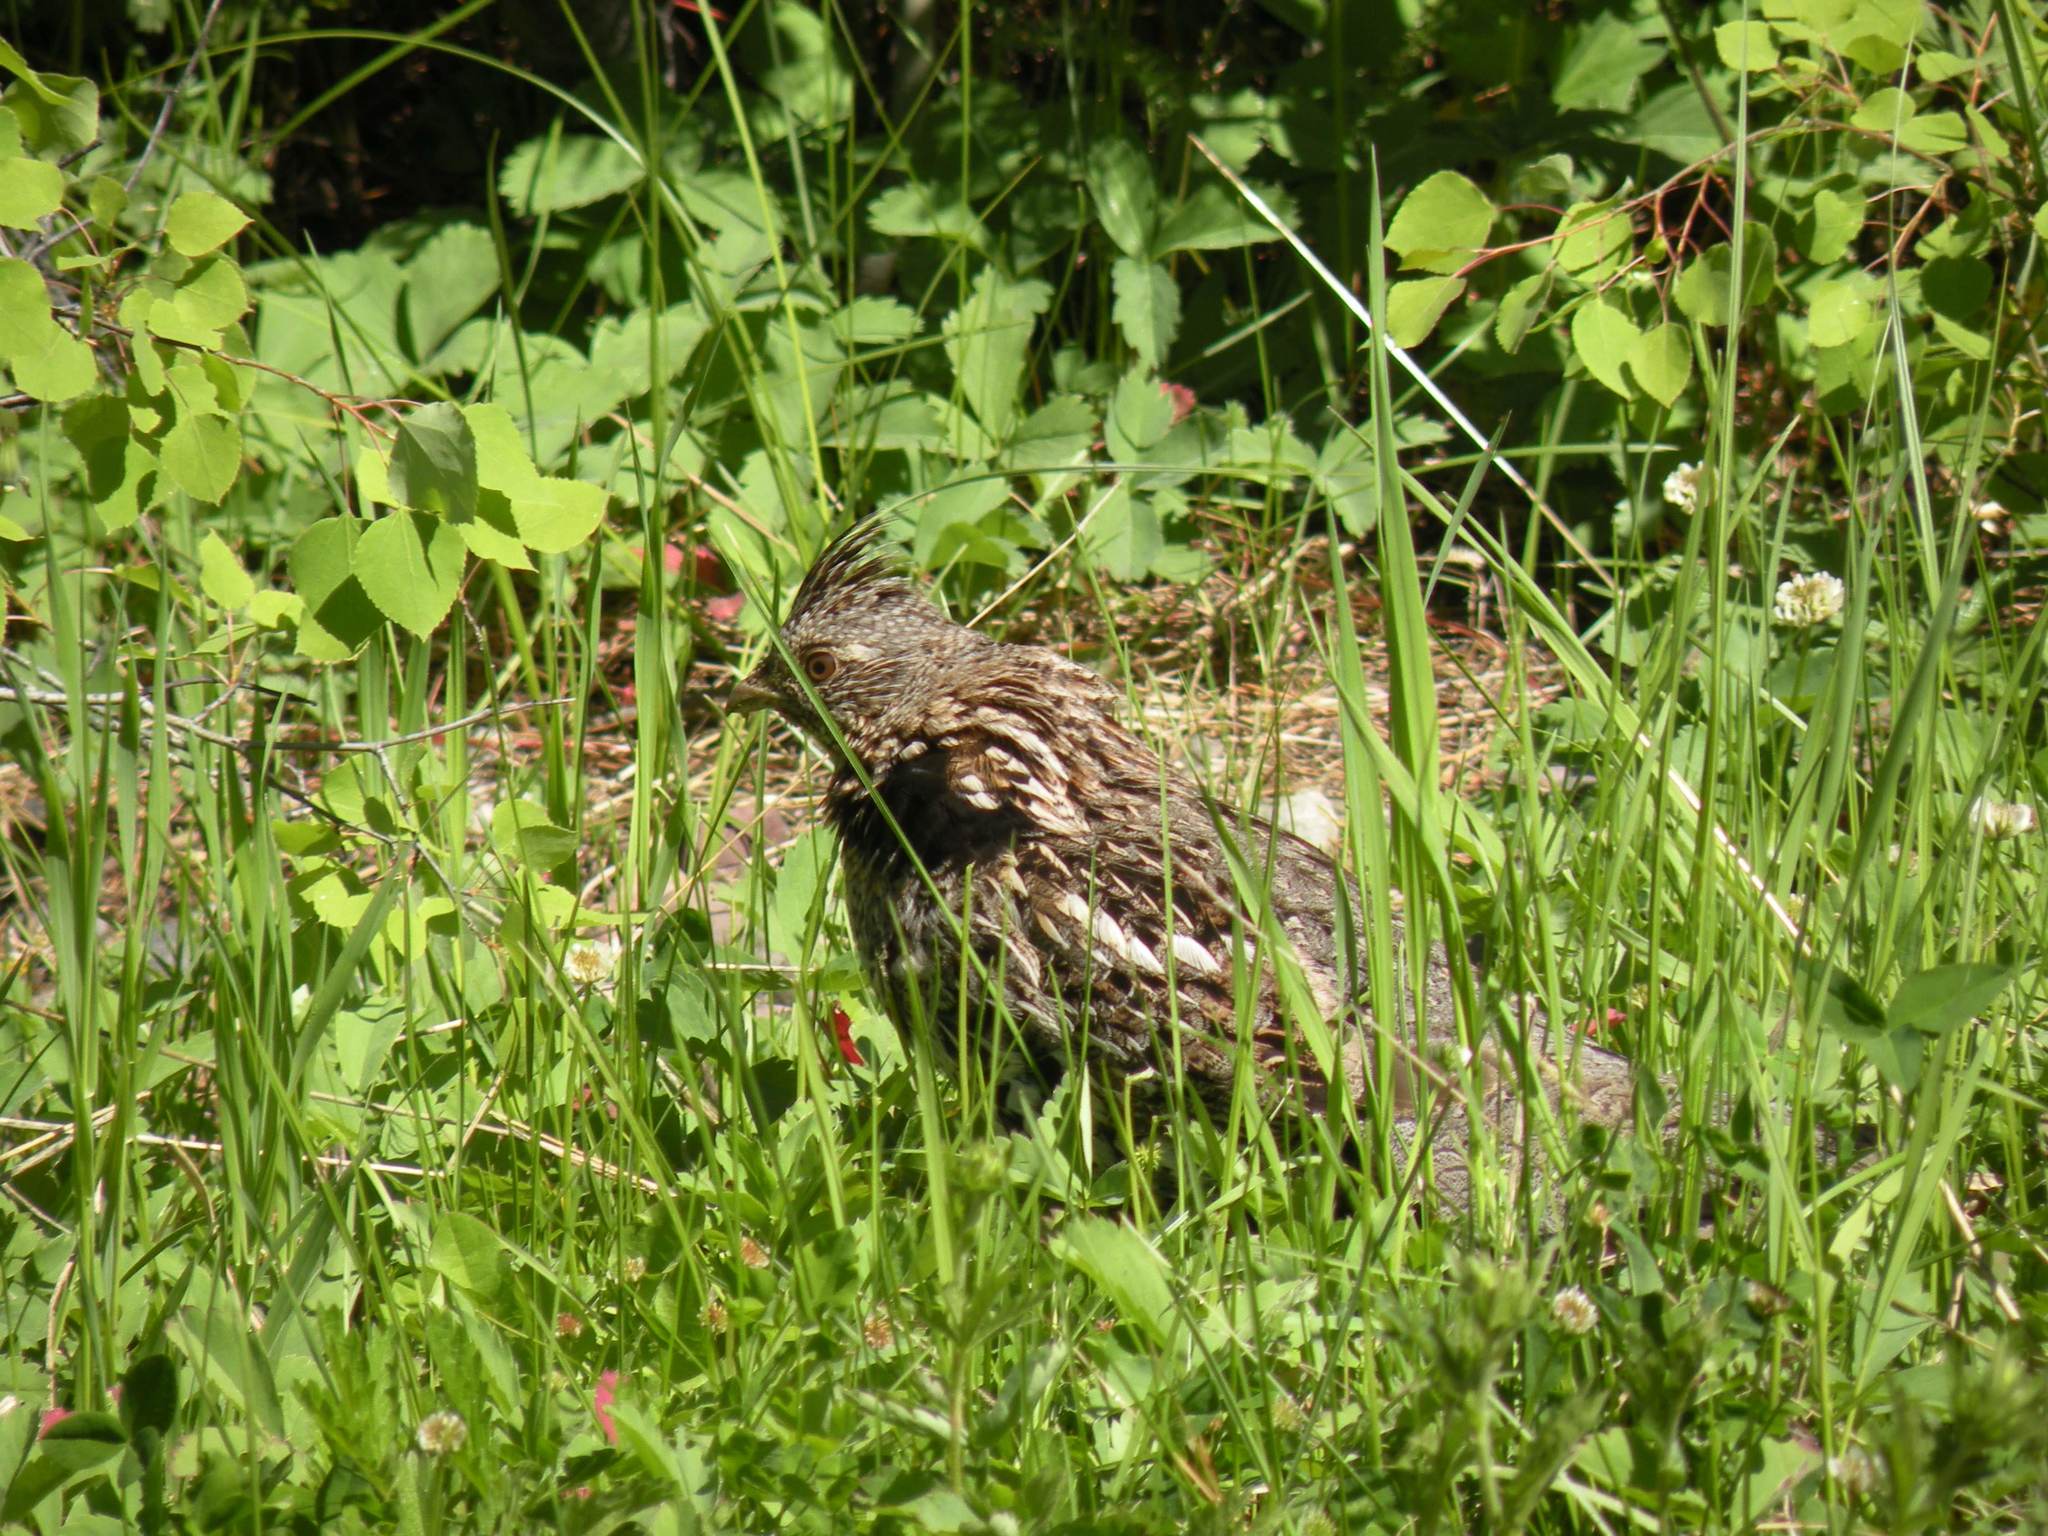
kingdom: Animalia
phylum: Chordata
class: Aves
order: Galliformes
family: Phasianidae
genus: Bonasa
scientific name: Bonasa umbellus
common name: Ruffed grouse
